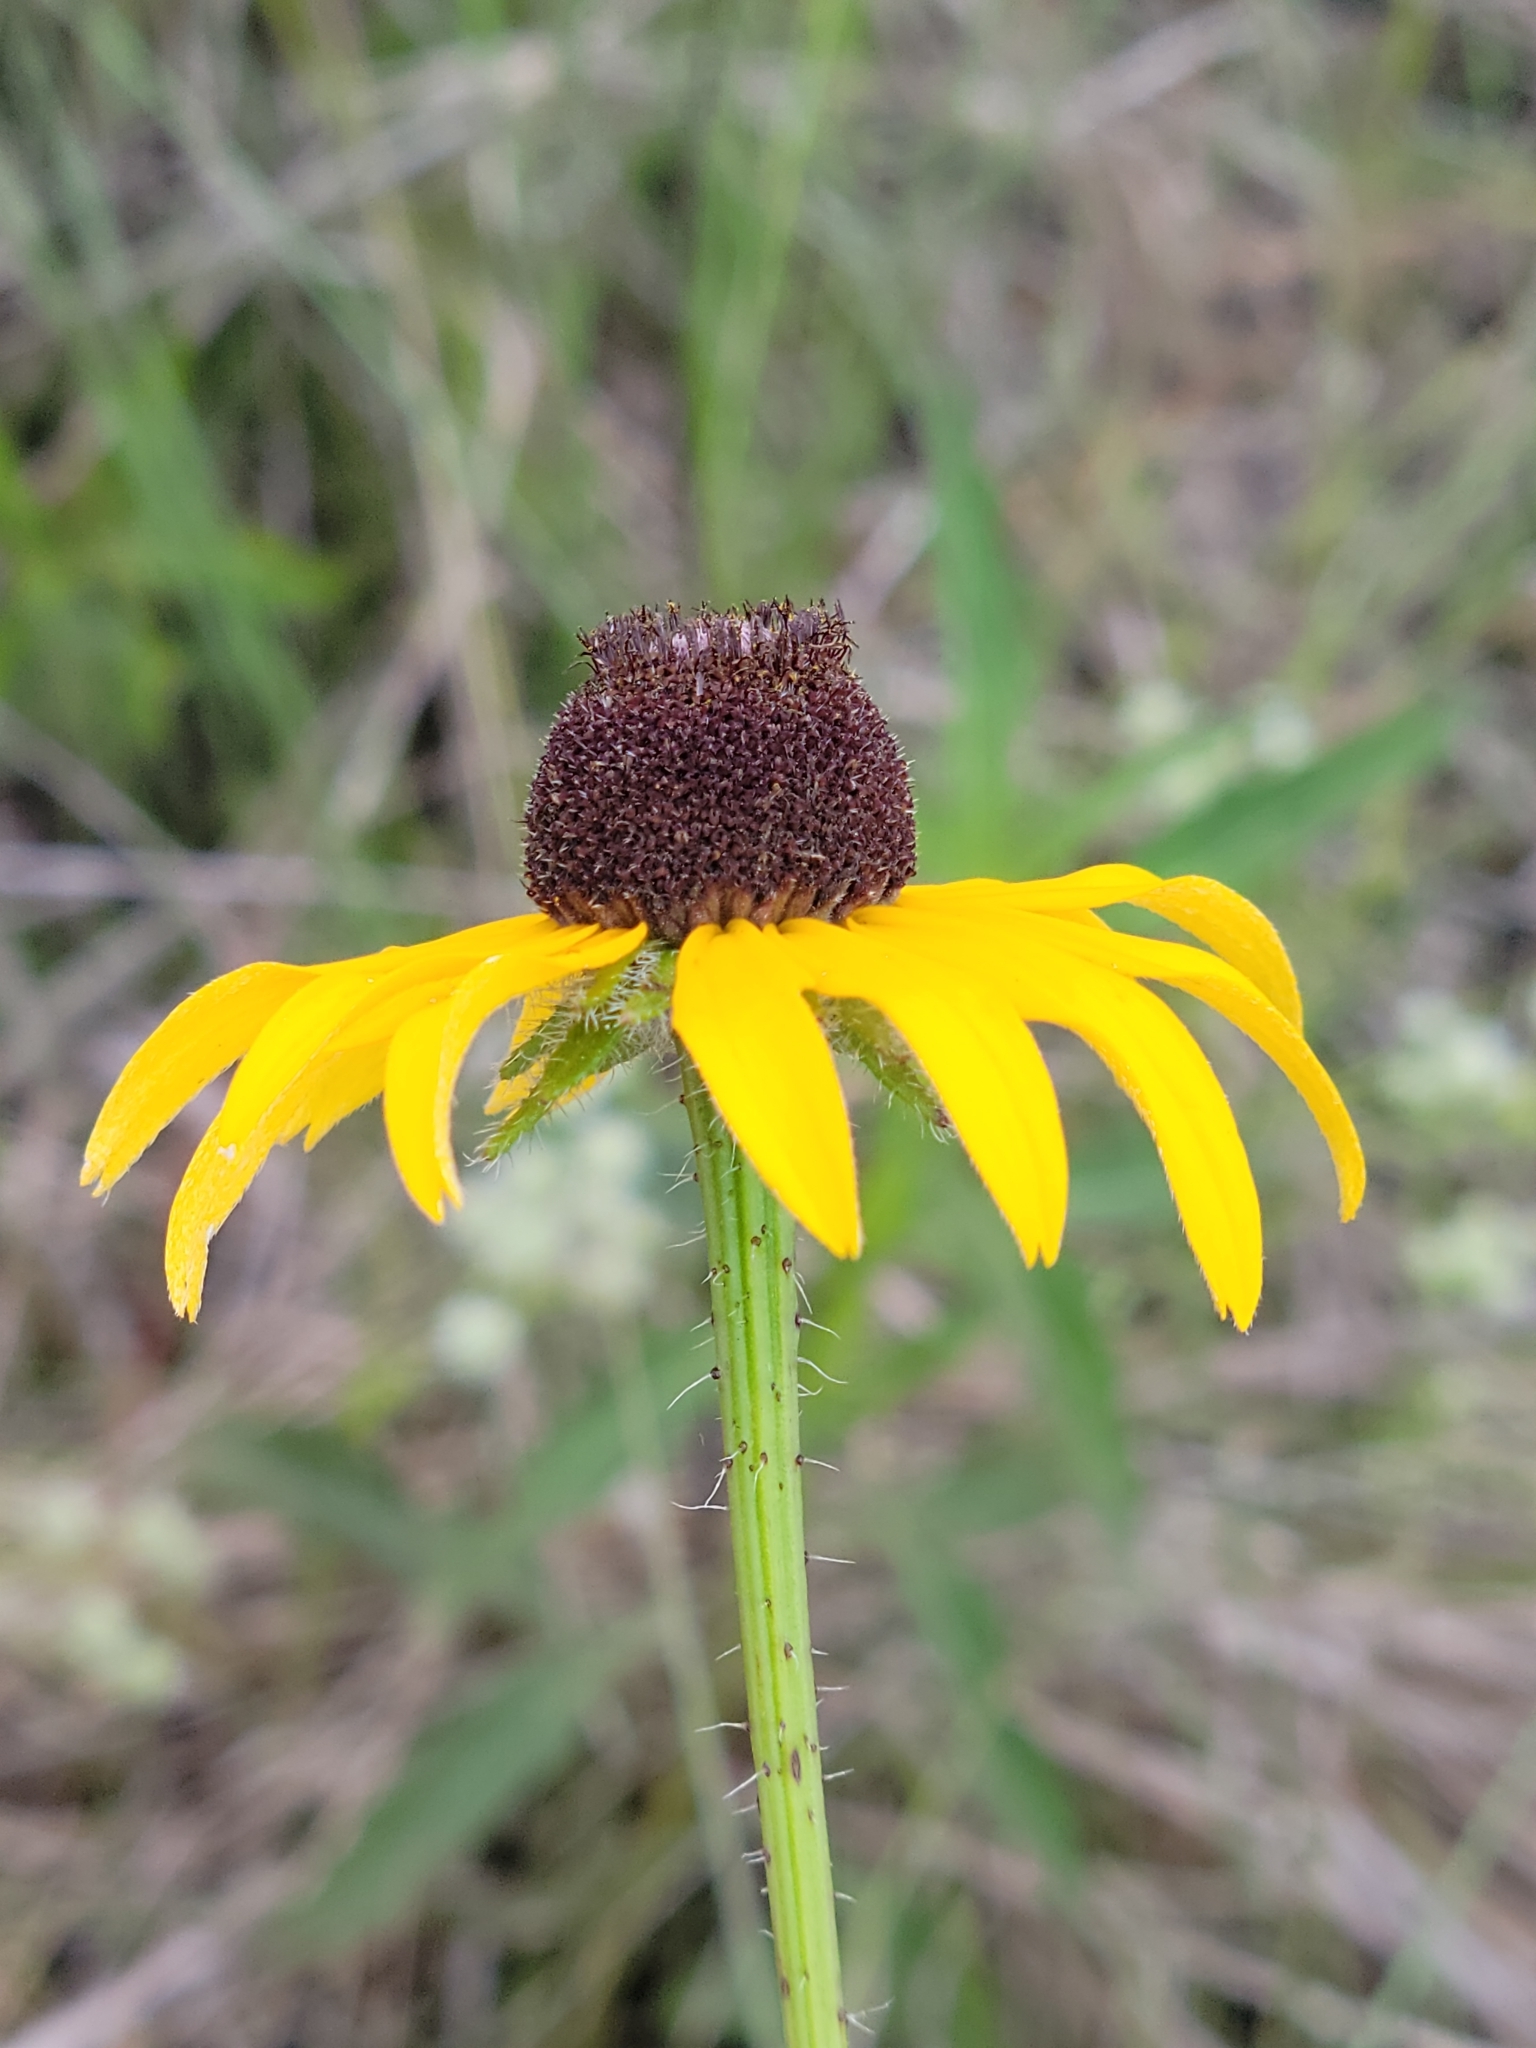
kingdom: Plantae
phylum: Tracheophyta
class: Magnoliopsida
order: Asterales
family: Asteraceae
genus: Rudbeckia
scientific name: Rudbeckia hirta
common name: Black-eyed-susan
